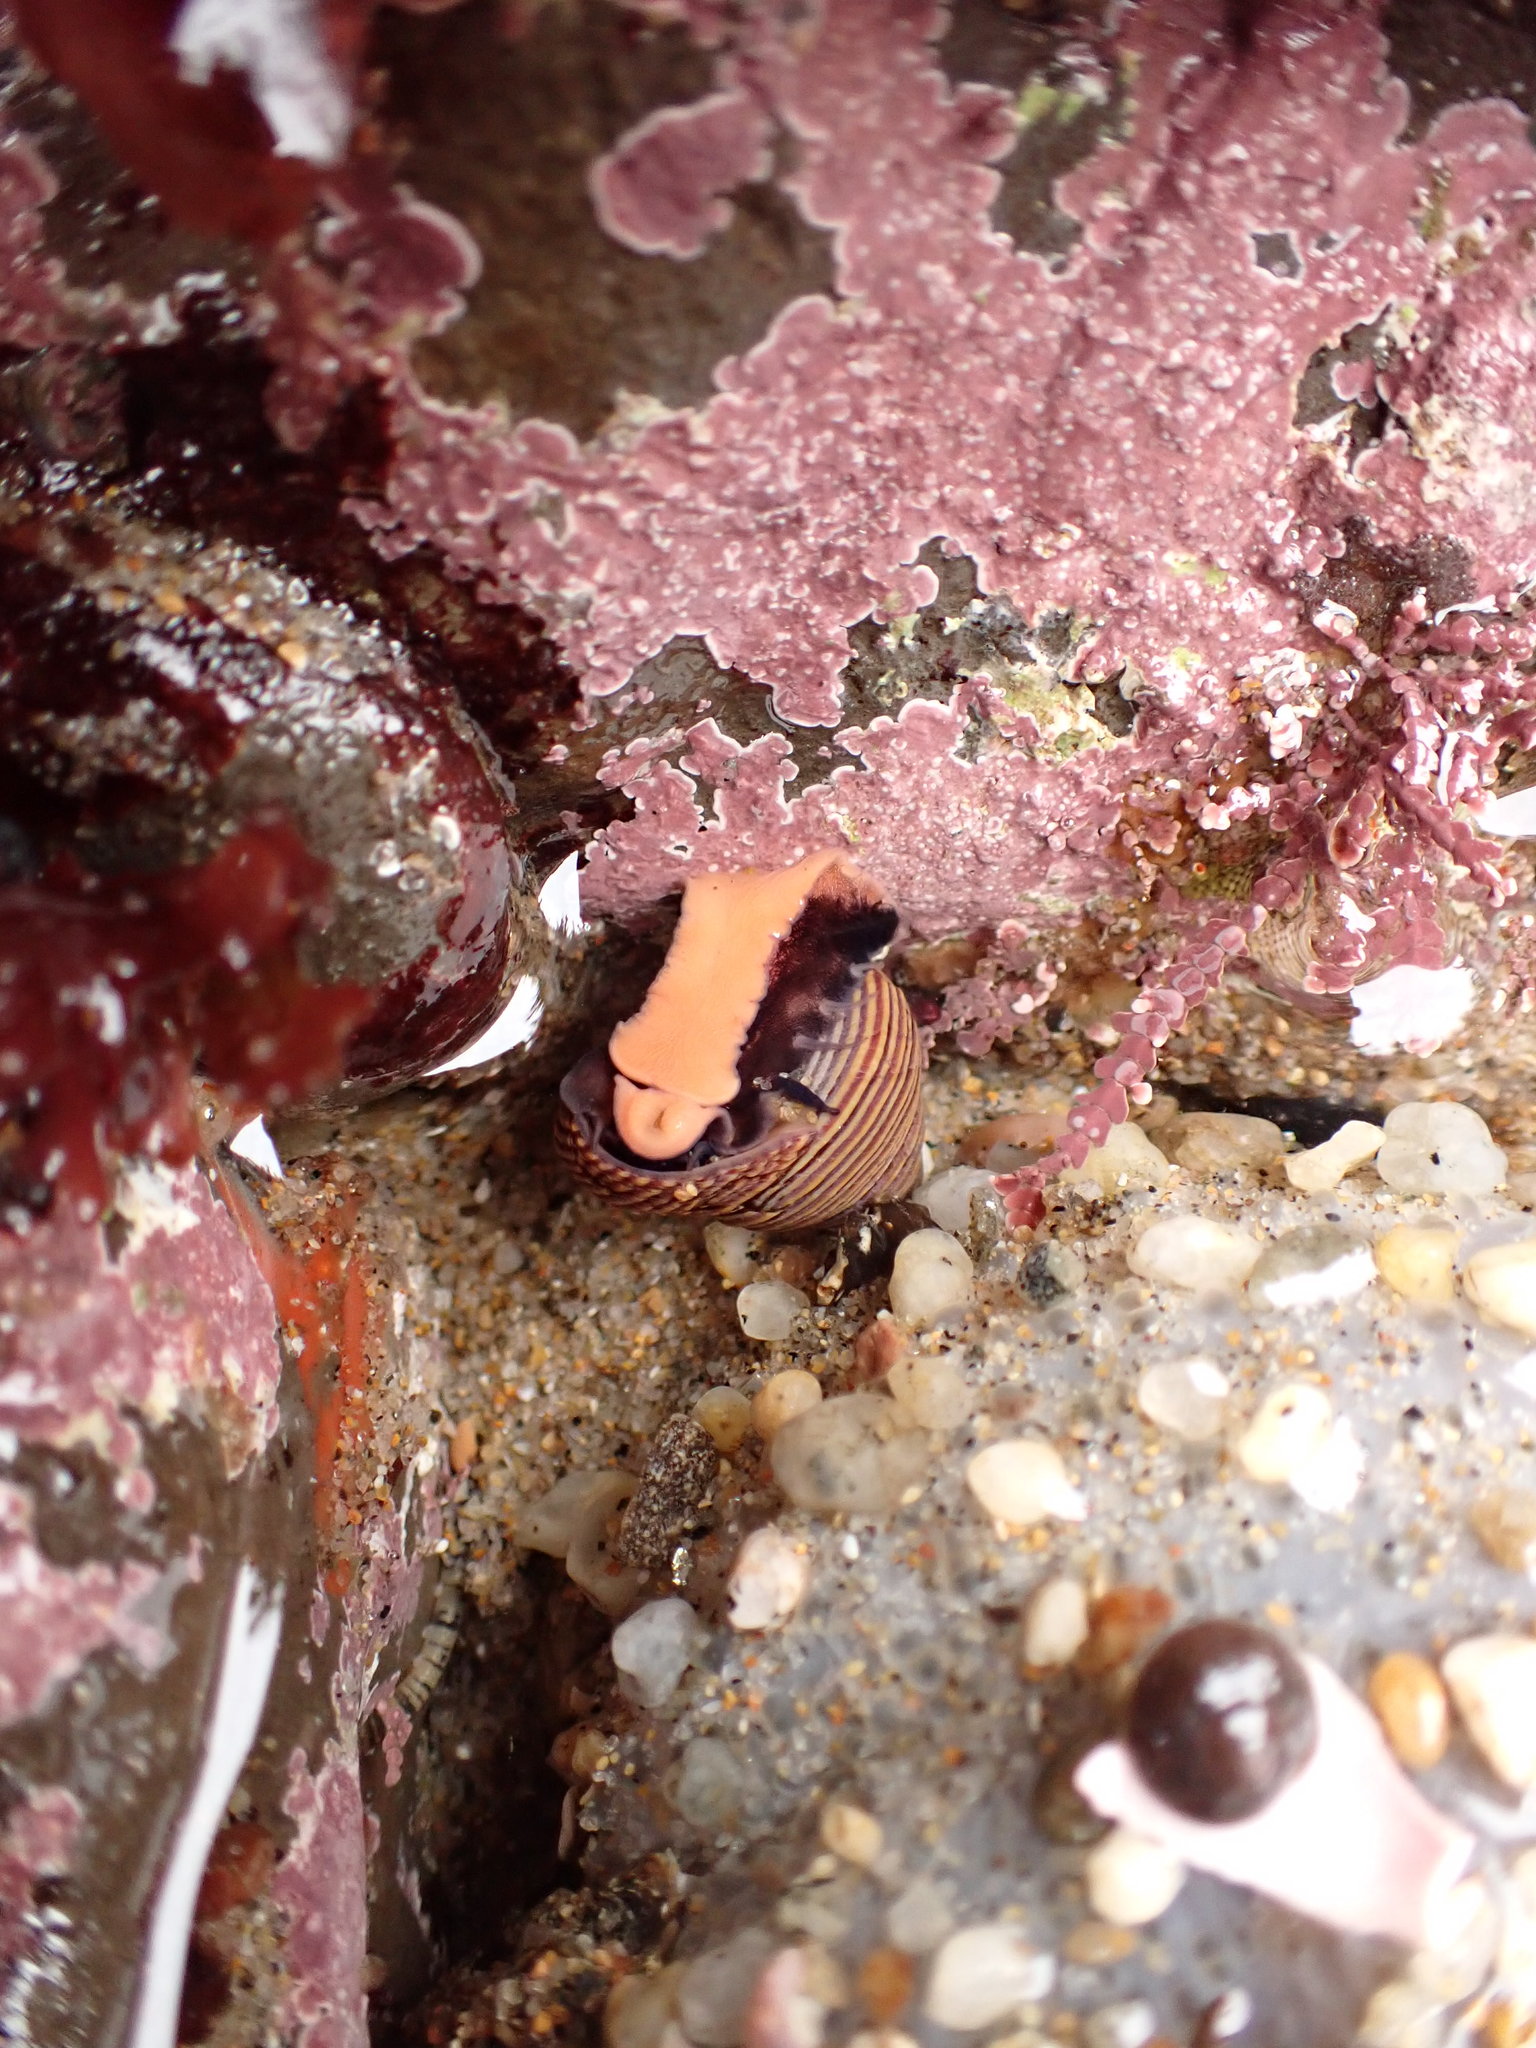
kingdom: Animalia
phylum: Mollusca
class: Gastropoda
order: Trochida
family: Calliostomatidae
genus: Calliostoma
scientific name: Calliostoma ligatum
